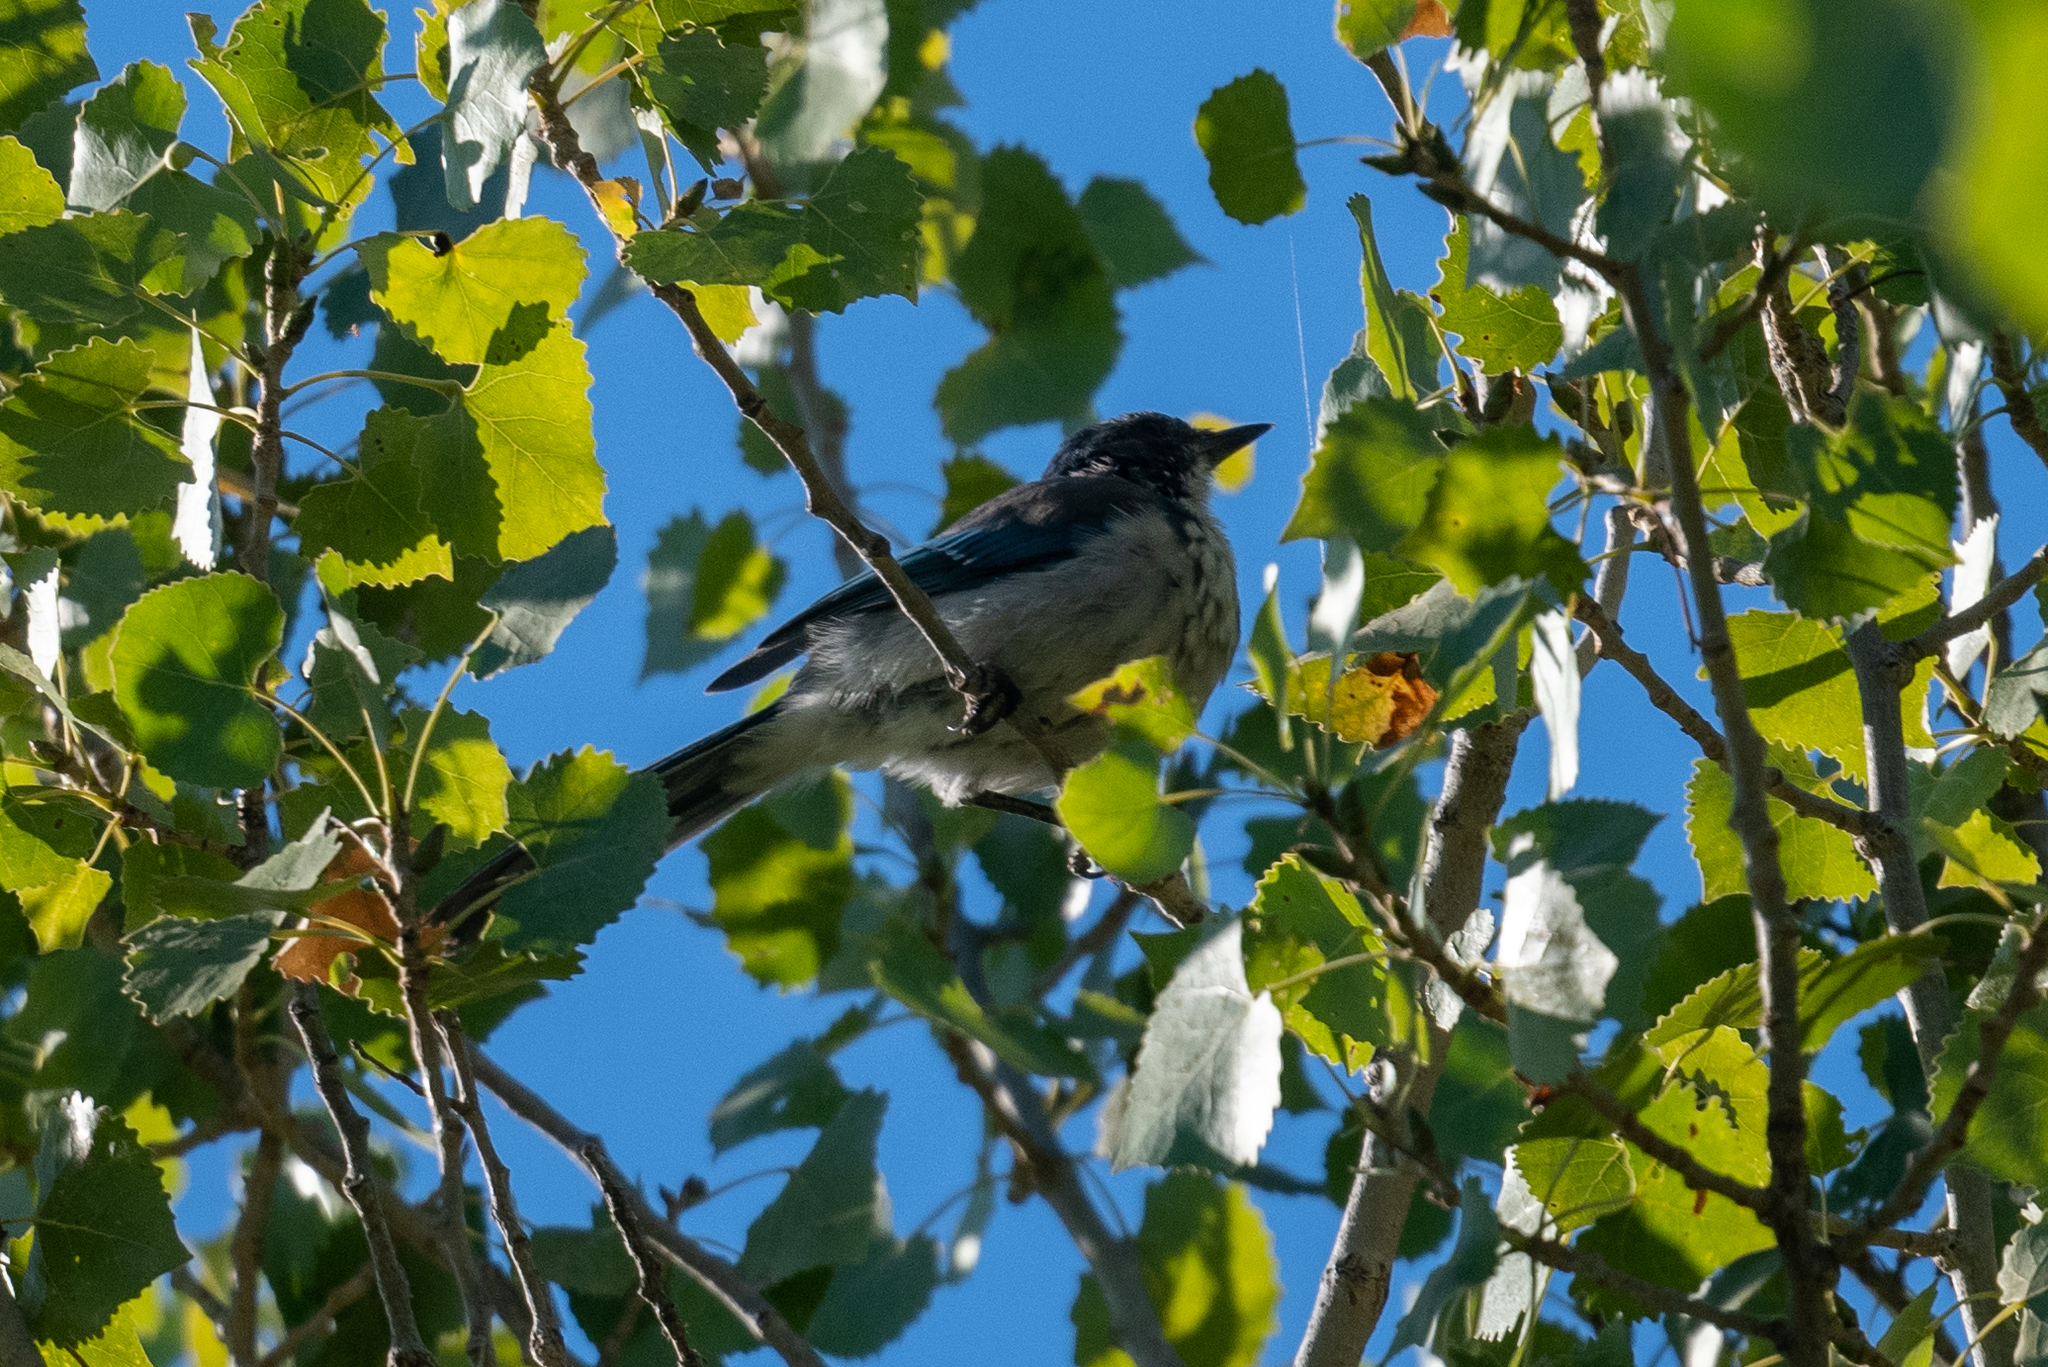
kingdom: Animalia
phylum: Chordata
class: Aves
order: Passeriformes
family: Corvidae
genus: Aphelocoma
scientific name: Aphelocoma californica
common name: California scrub-jay
